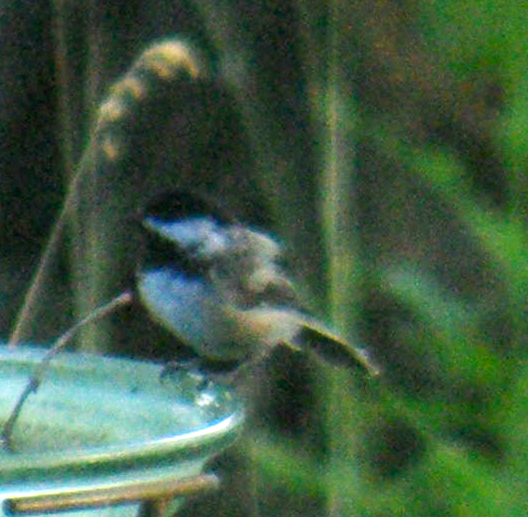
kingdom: Animalia
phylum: Chordata
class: Aves
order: Passeriformes
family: Paridae
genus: Poecile
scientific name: Poecile atricapillus
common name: Black-capped chickadee
